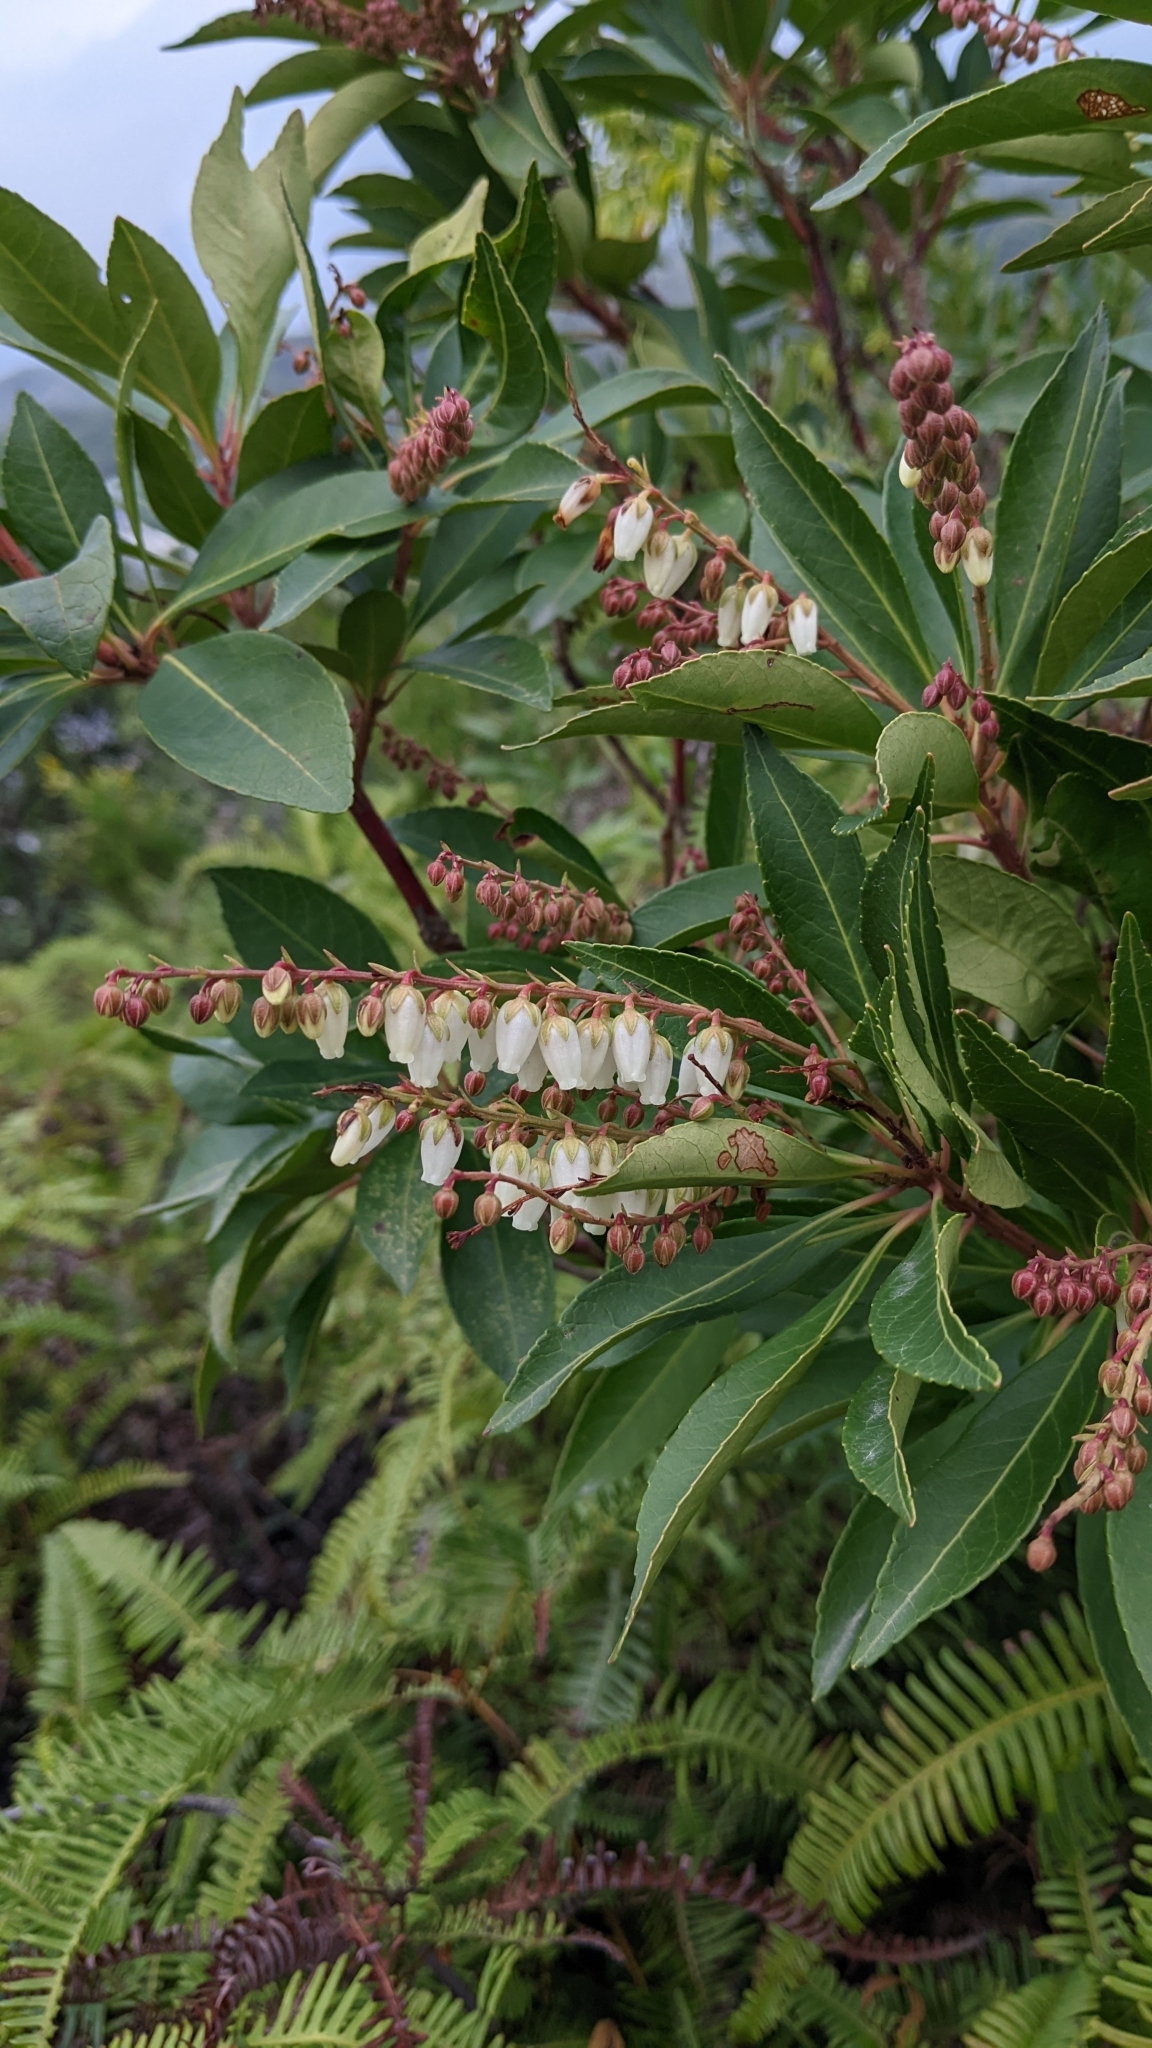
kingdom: Plantae
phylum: Tracheophyta
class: Magnoliopsida
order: Ericales
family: Ericaceae
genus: Pieris
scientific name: Pieris japonica
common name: Japanese pieris
